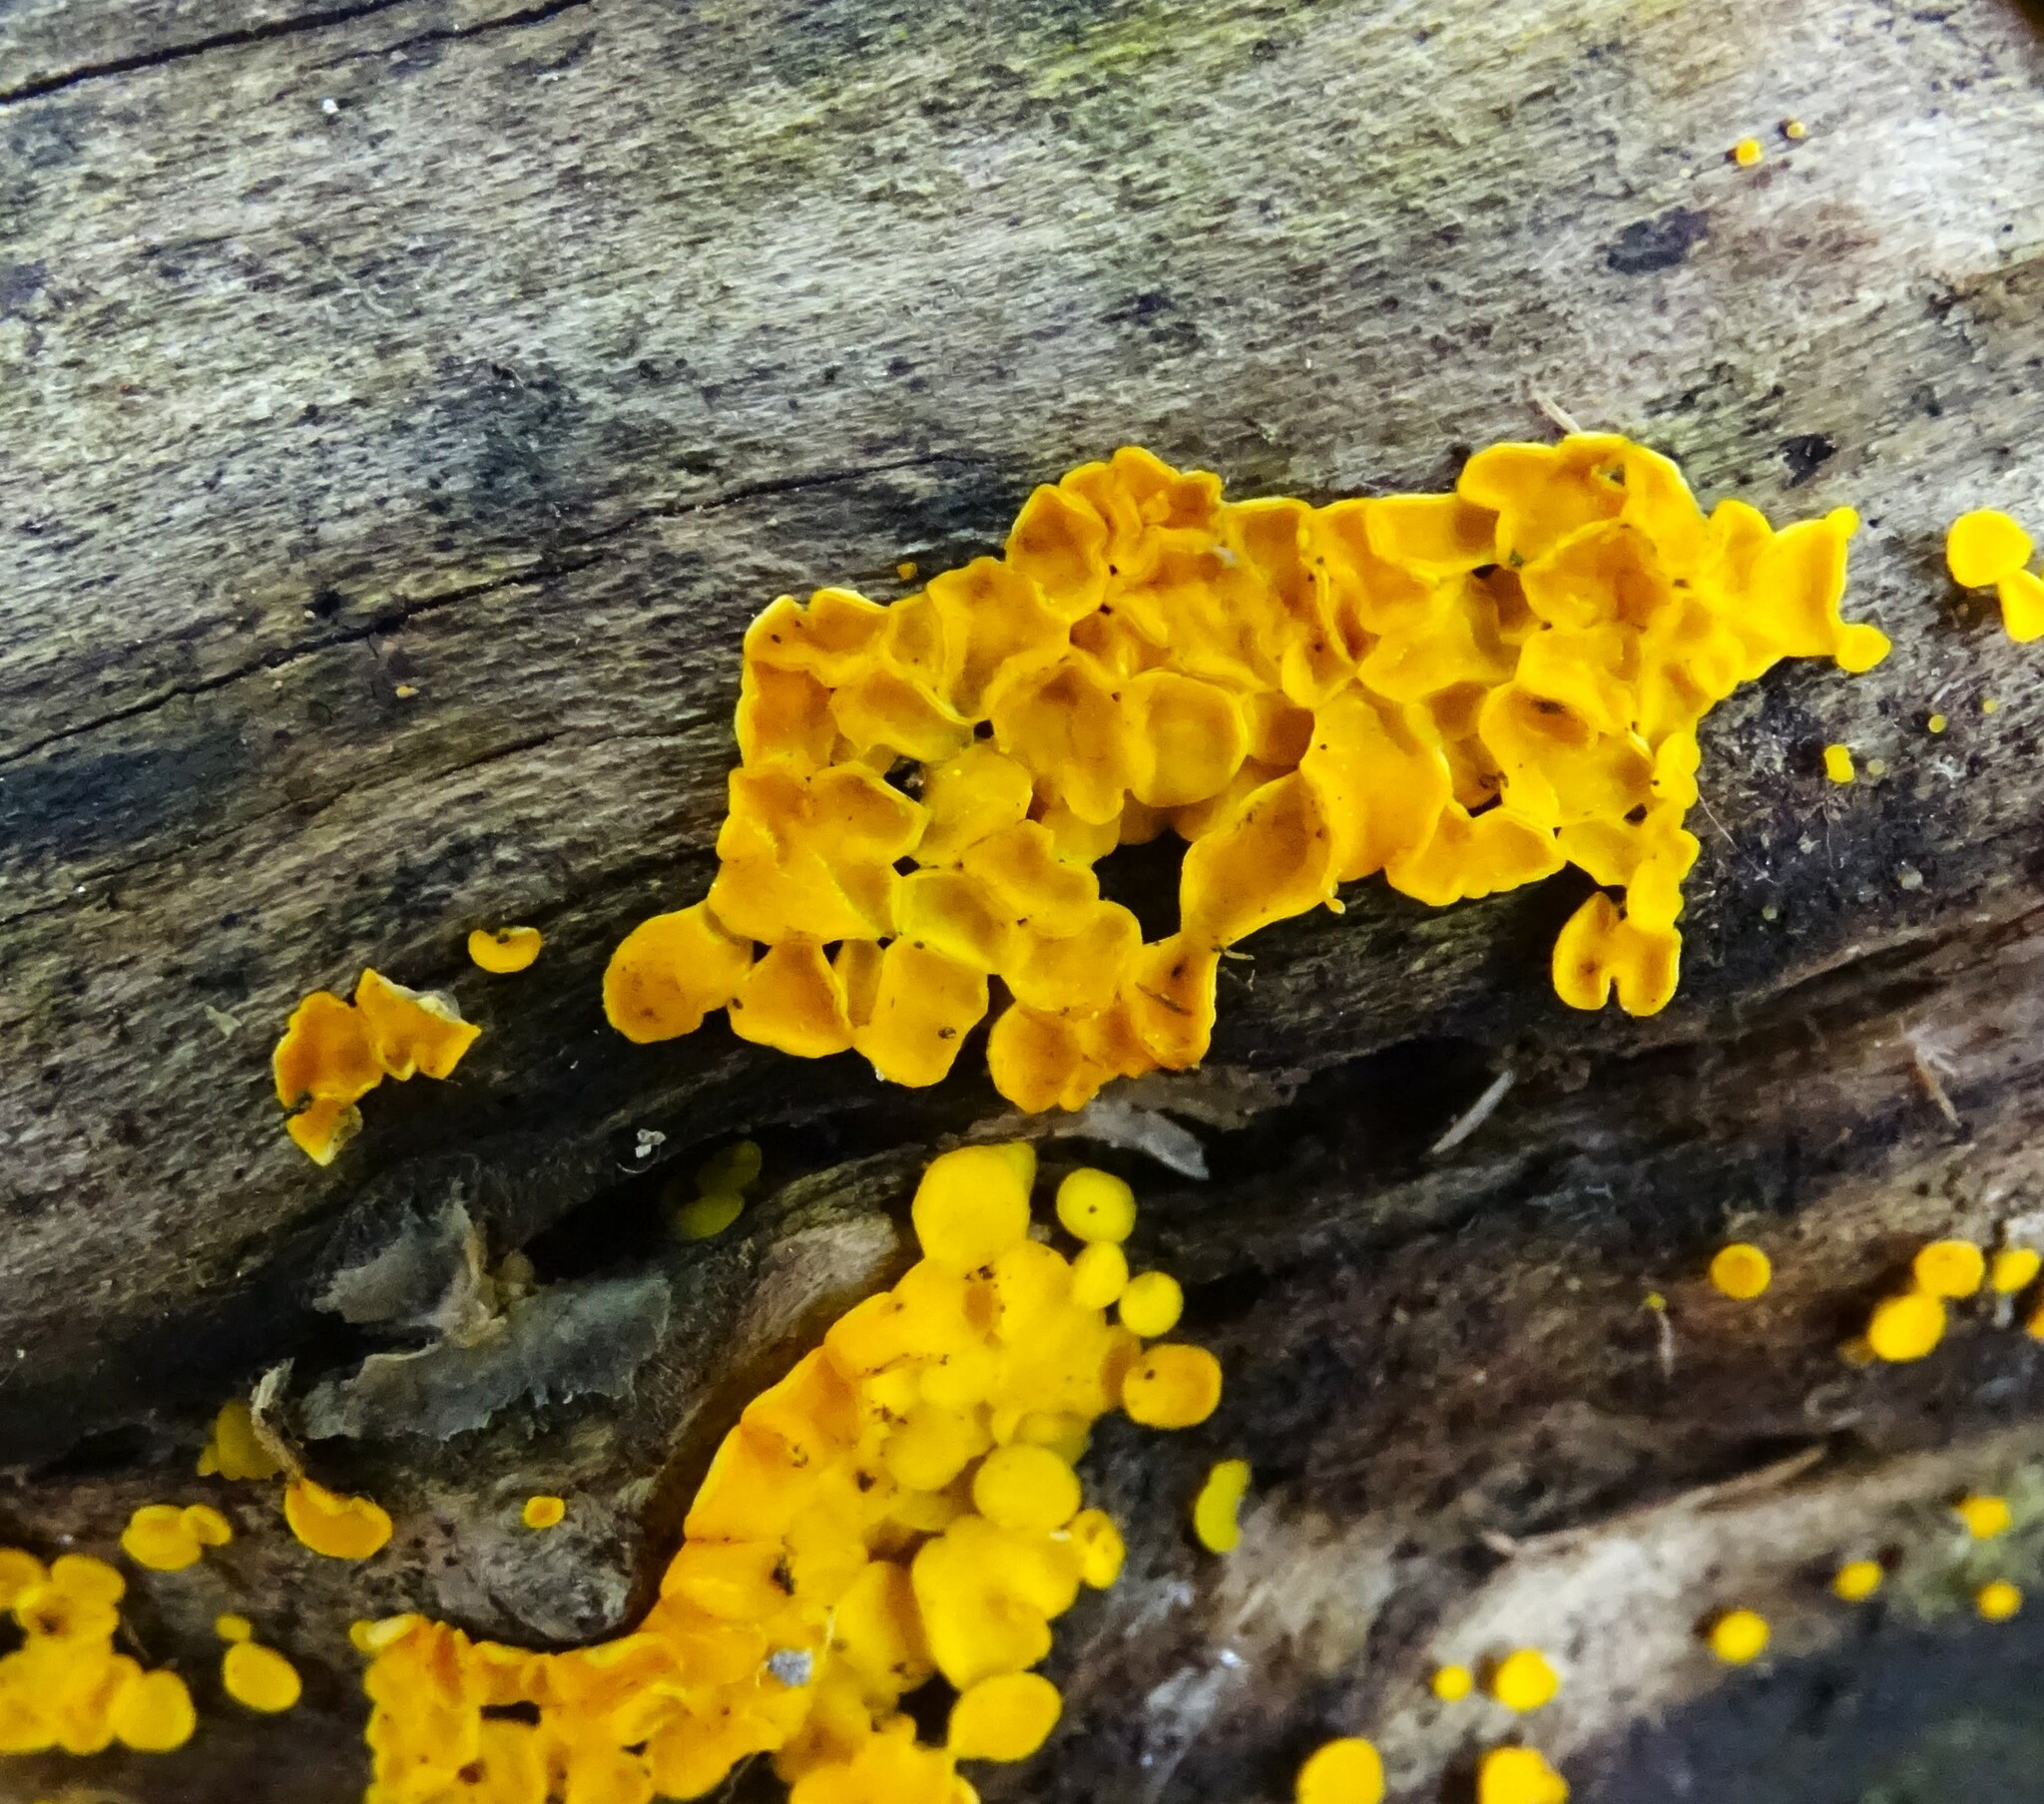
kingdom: Fungi
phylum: Ascomycota
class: Leotiomycetes
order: Helotiales
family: Pezizellaceae
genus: Calycina
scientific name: Calycina citrina
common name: Yellow fairy cups
